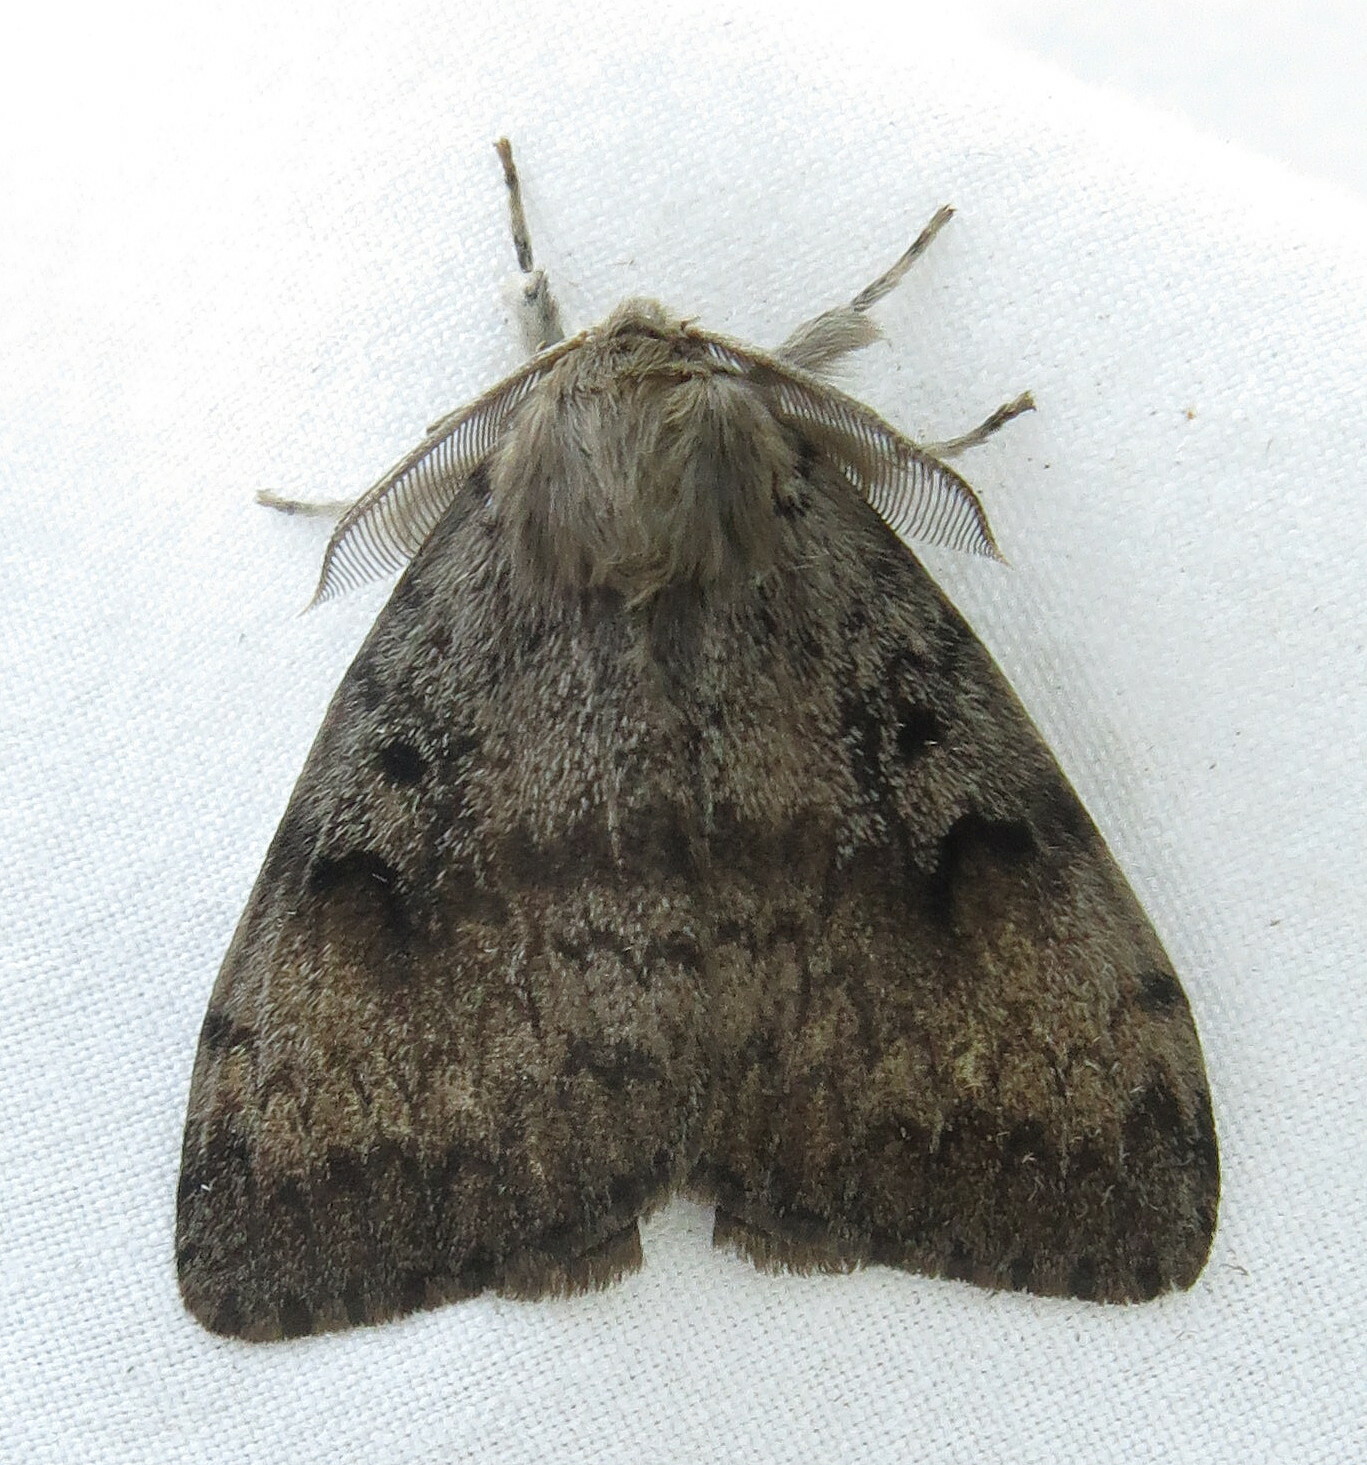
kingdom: Animalia
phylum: Arthropoda
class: Insecta
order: Lepidoptera
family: Erebidae
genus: Lymantria
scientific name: Lymantria dispar
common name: Gypsy moth
